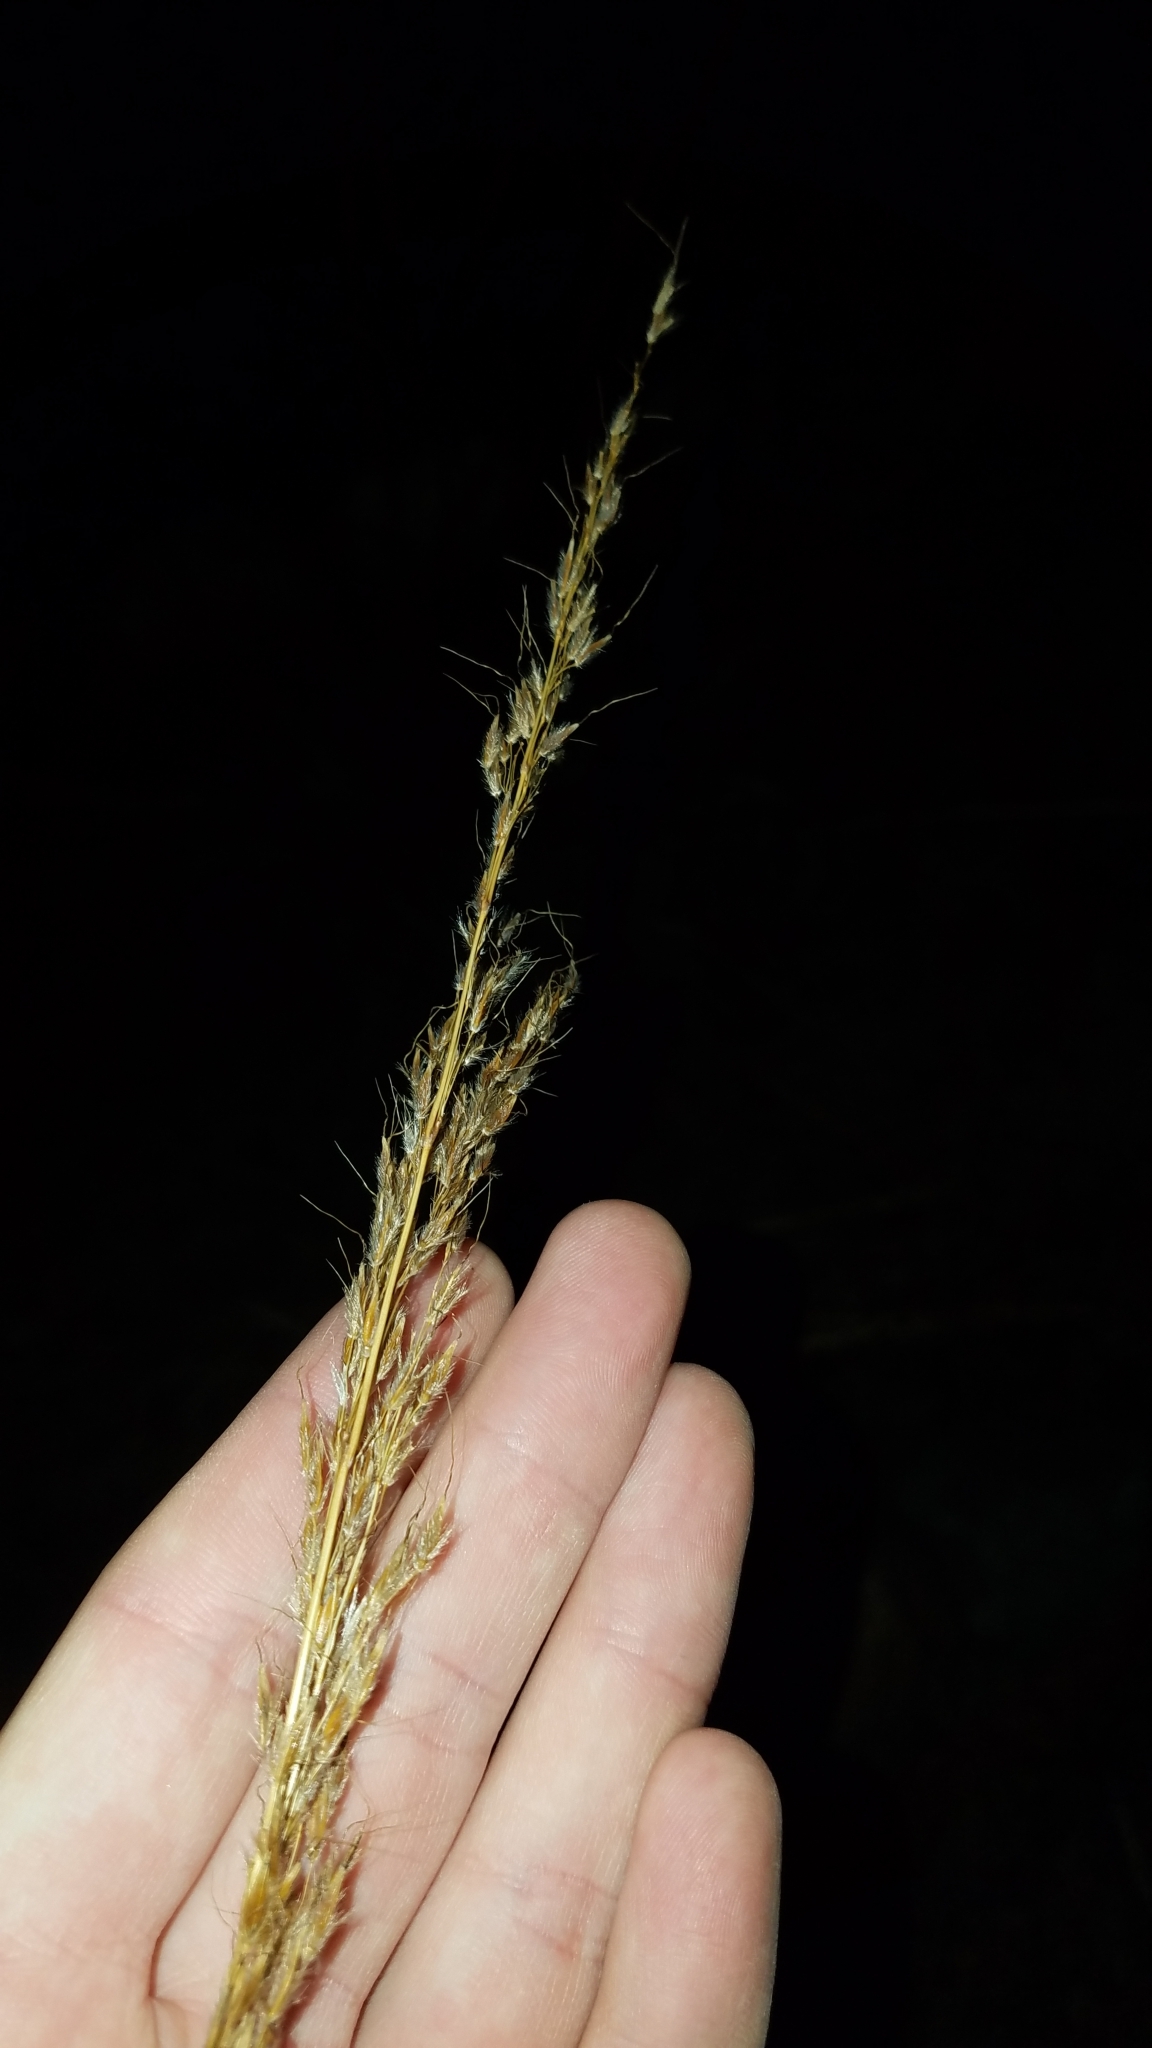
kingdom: Plantae
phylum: Tracheophyta
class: Liliopsida
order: Poales
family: Poaceae
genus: Sorghastrum
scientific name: Sorghastrum nutans
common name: Indian grass
